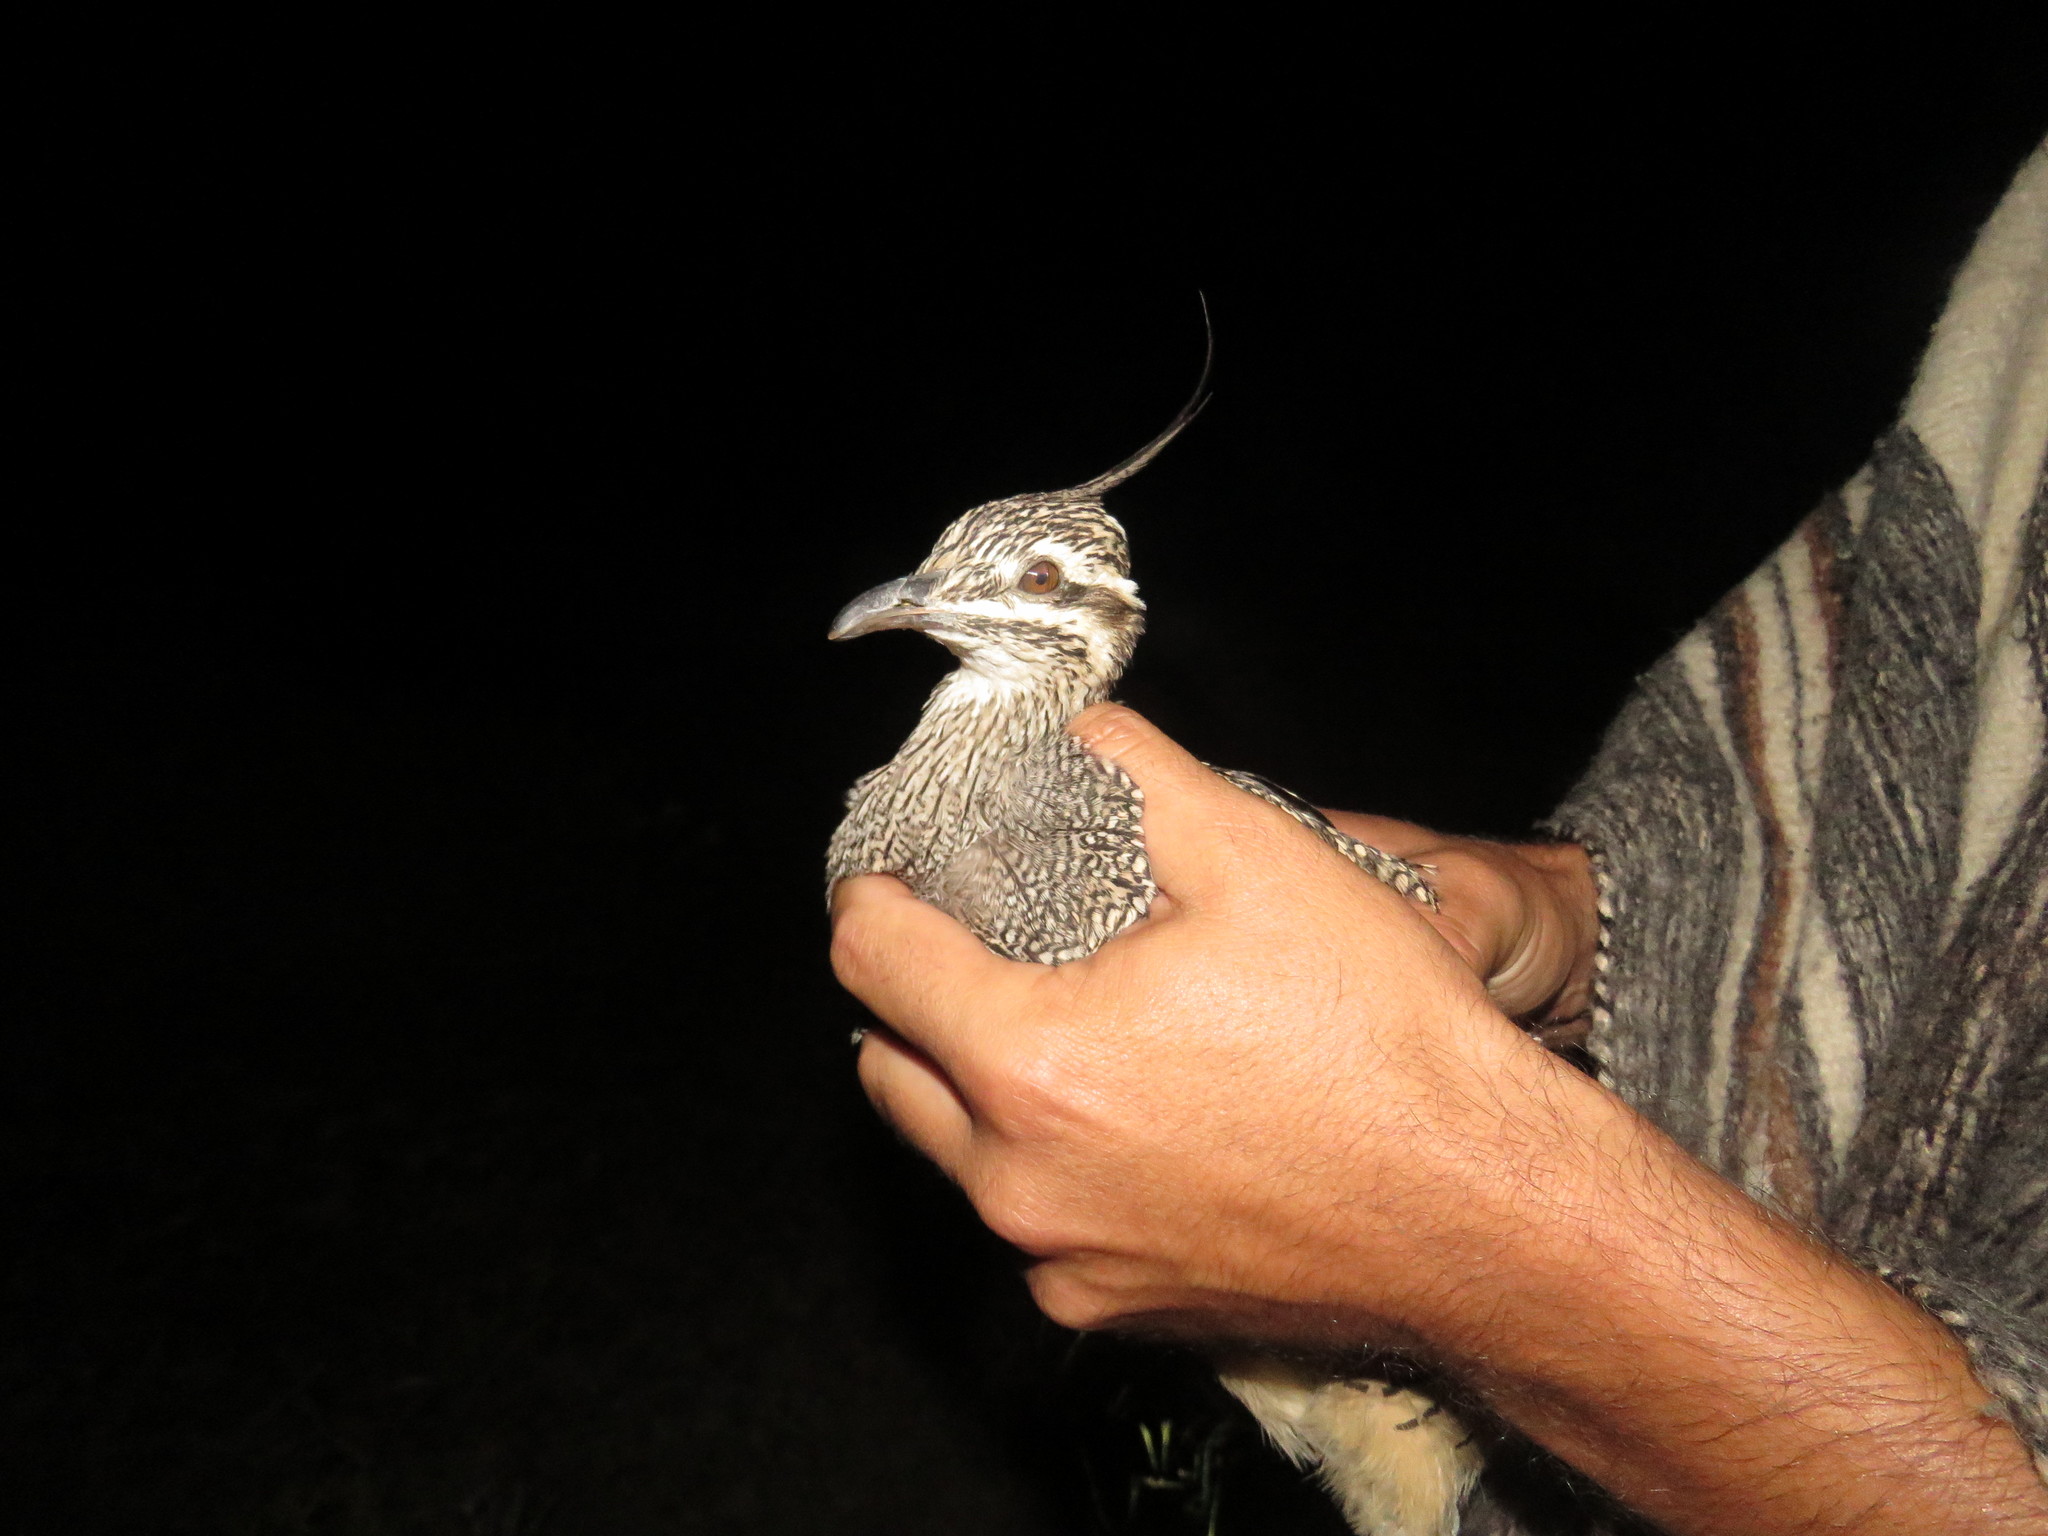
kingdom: Animalia
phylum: Chordata
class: Aves
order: Tinamiformes
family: Tinamidae
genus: Eudromia
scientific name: Eudromia elegans
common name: Elegant crested tinamou
